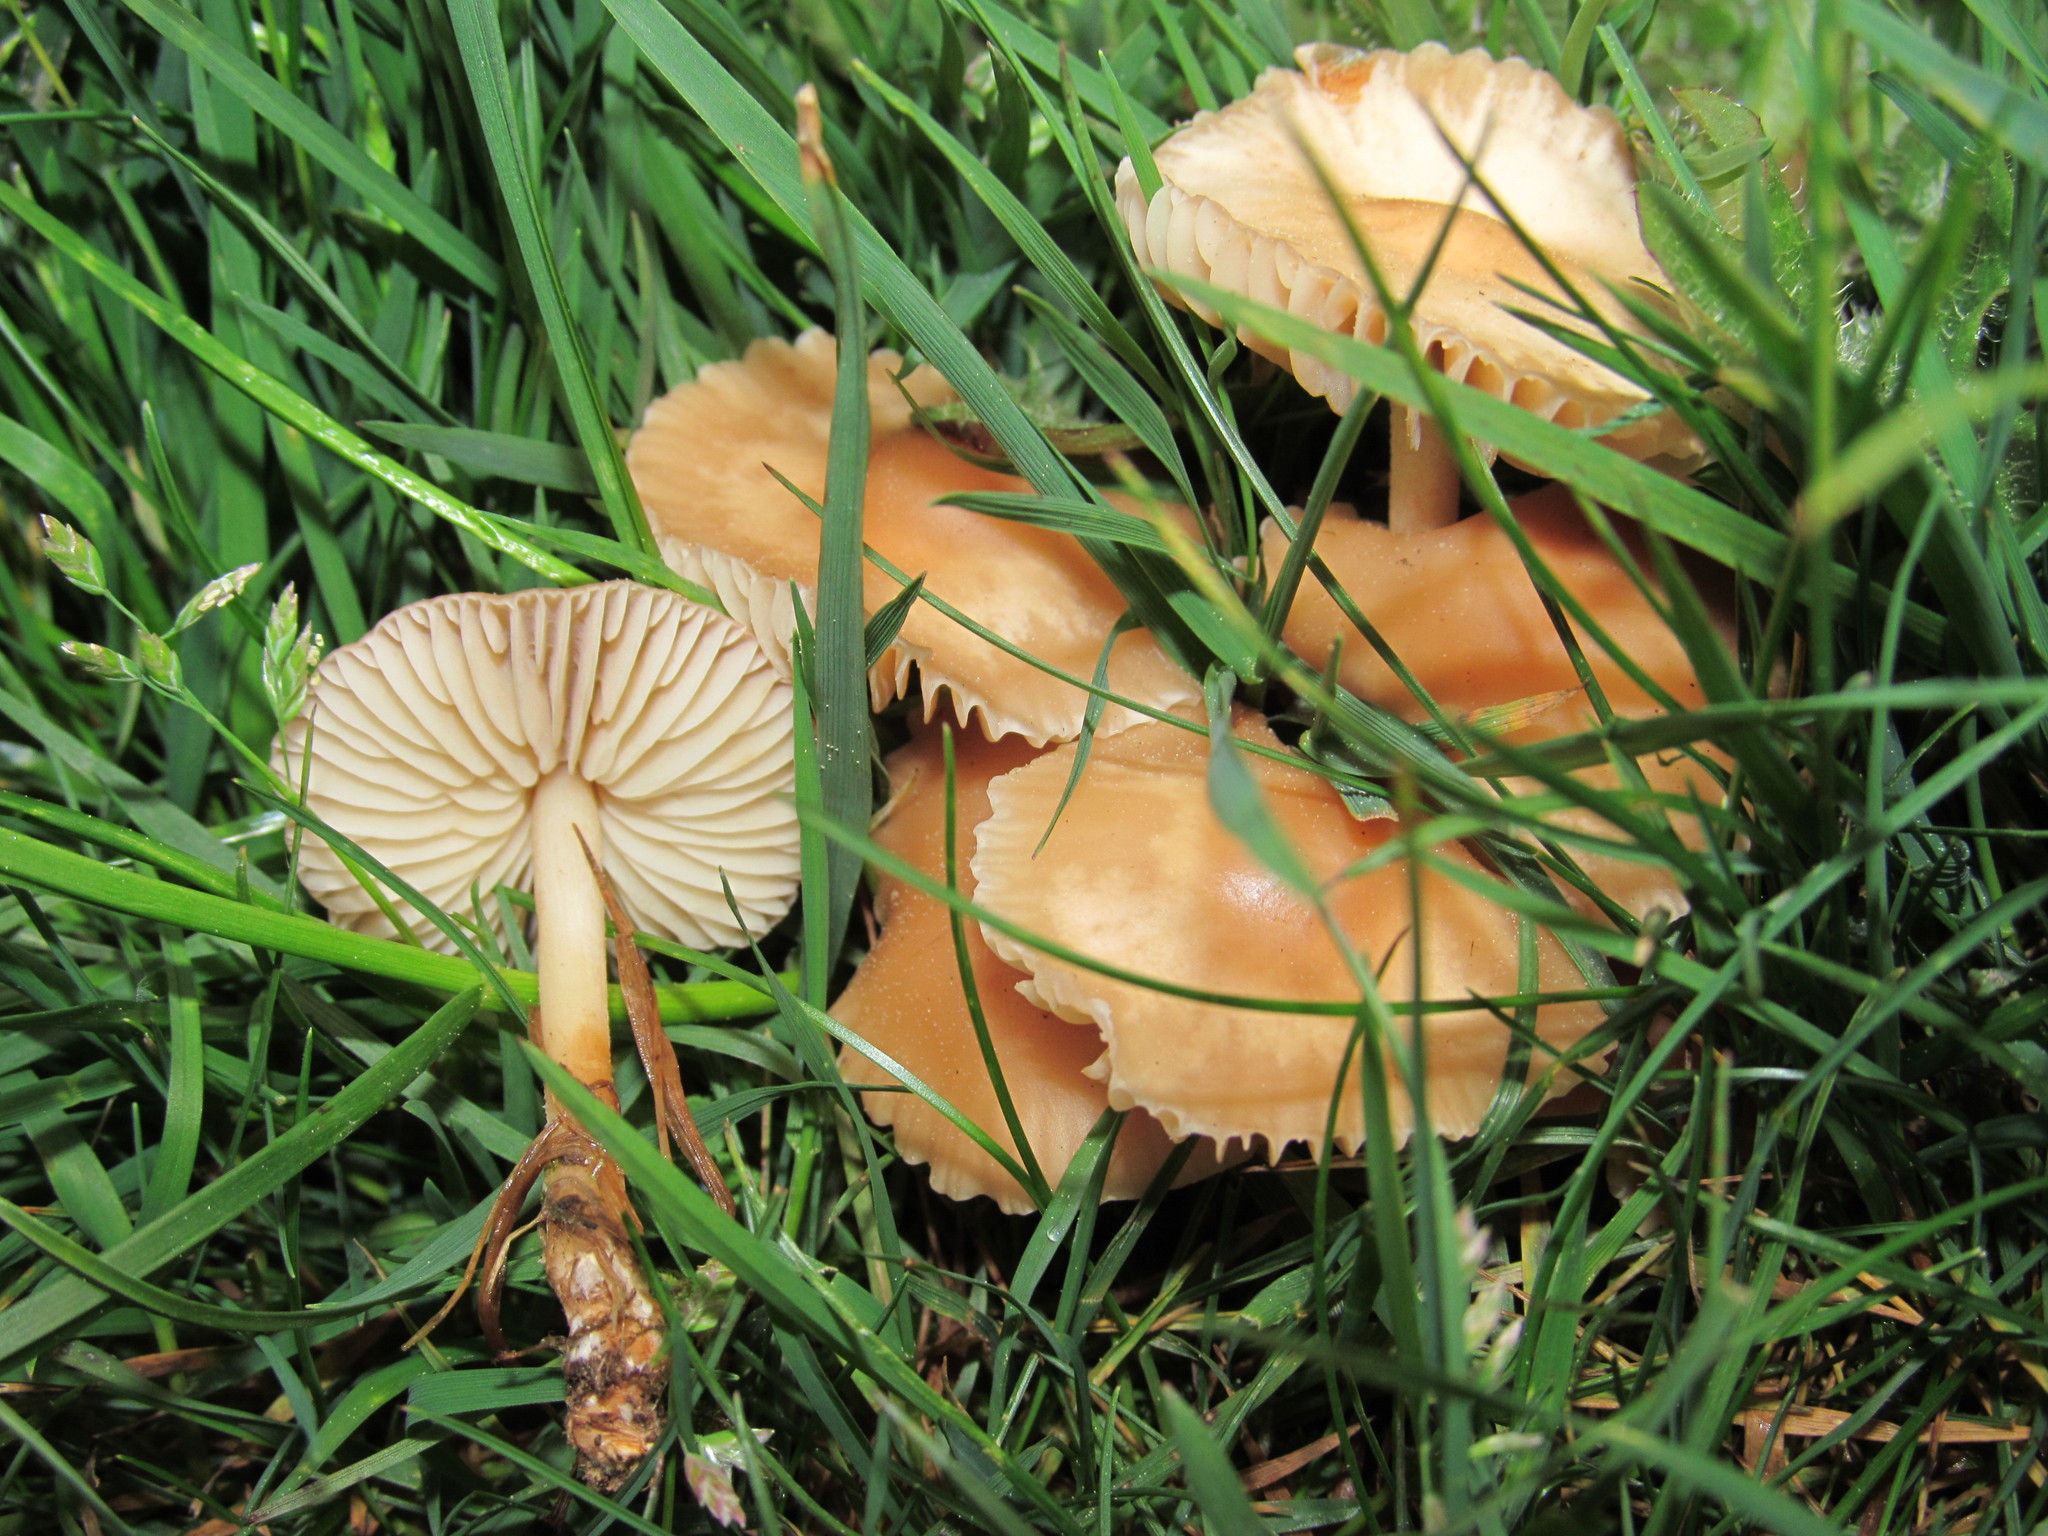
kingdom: Fungi
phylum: Basidiomycota
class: Agaricomycetes
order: Agaricales
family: Marasmiaceae
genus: Marasmius
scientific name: Marasmius oreades
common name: Fairy ring champignon
